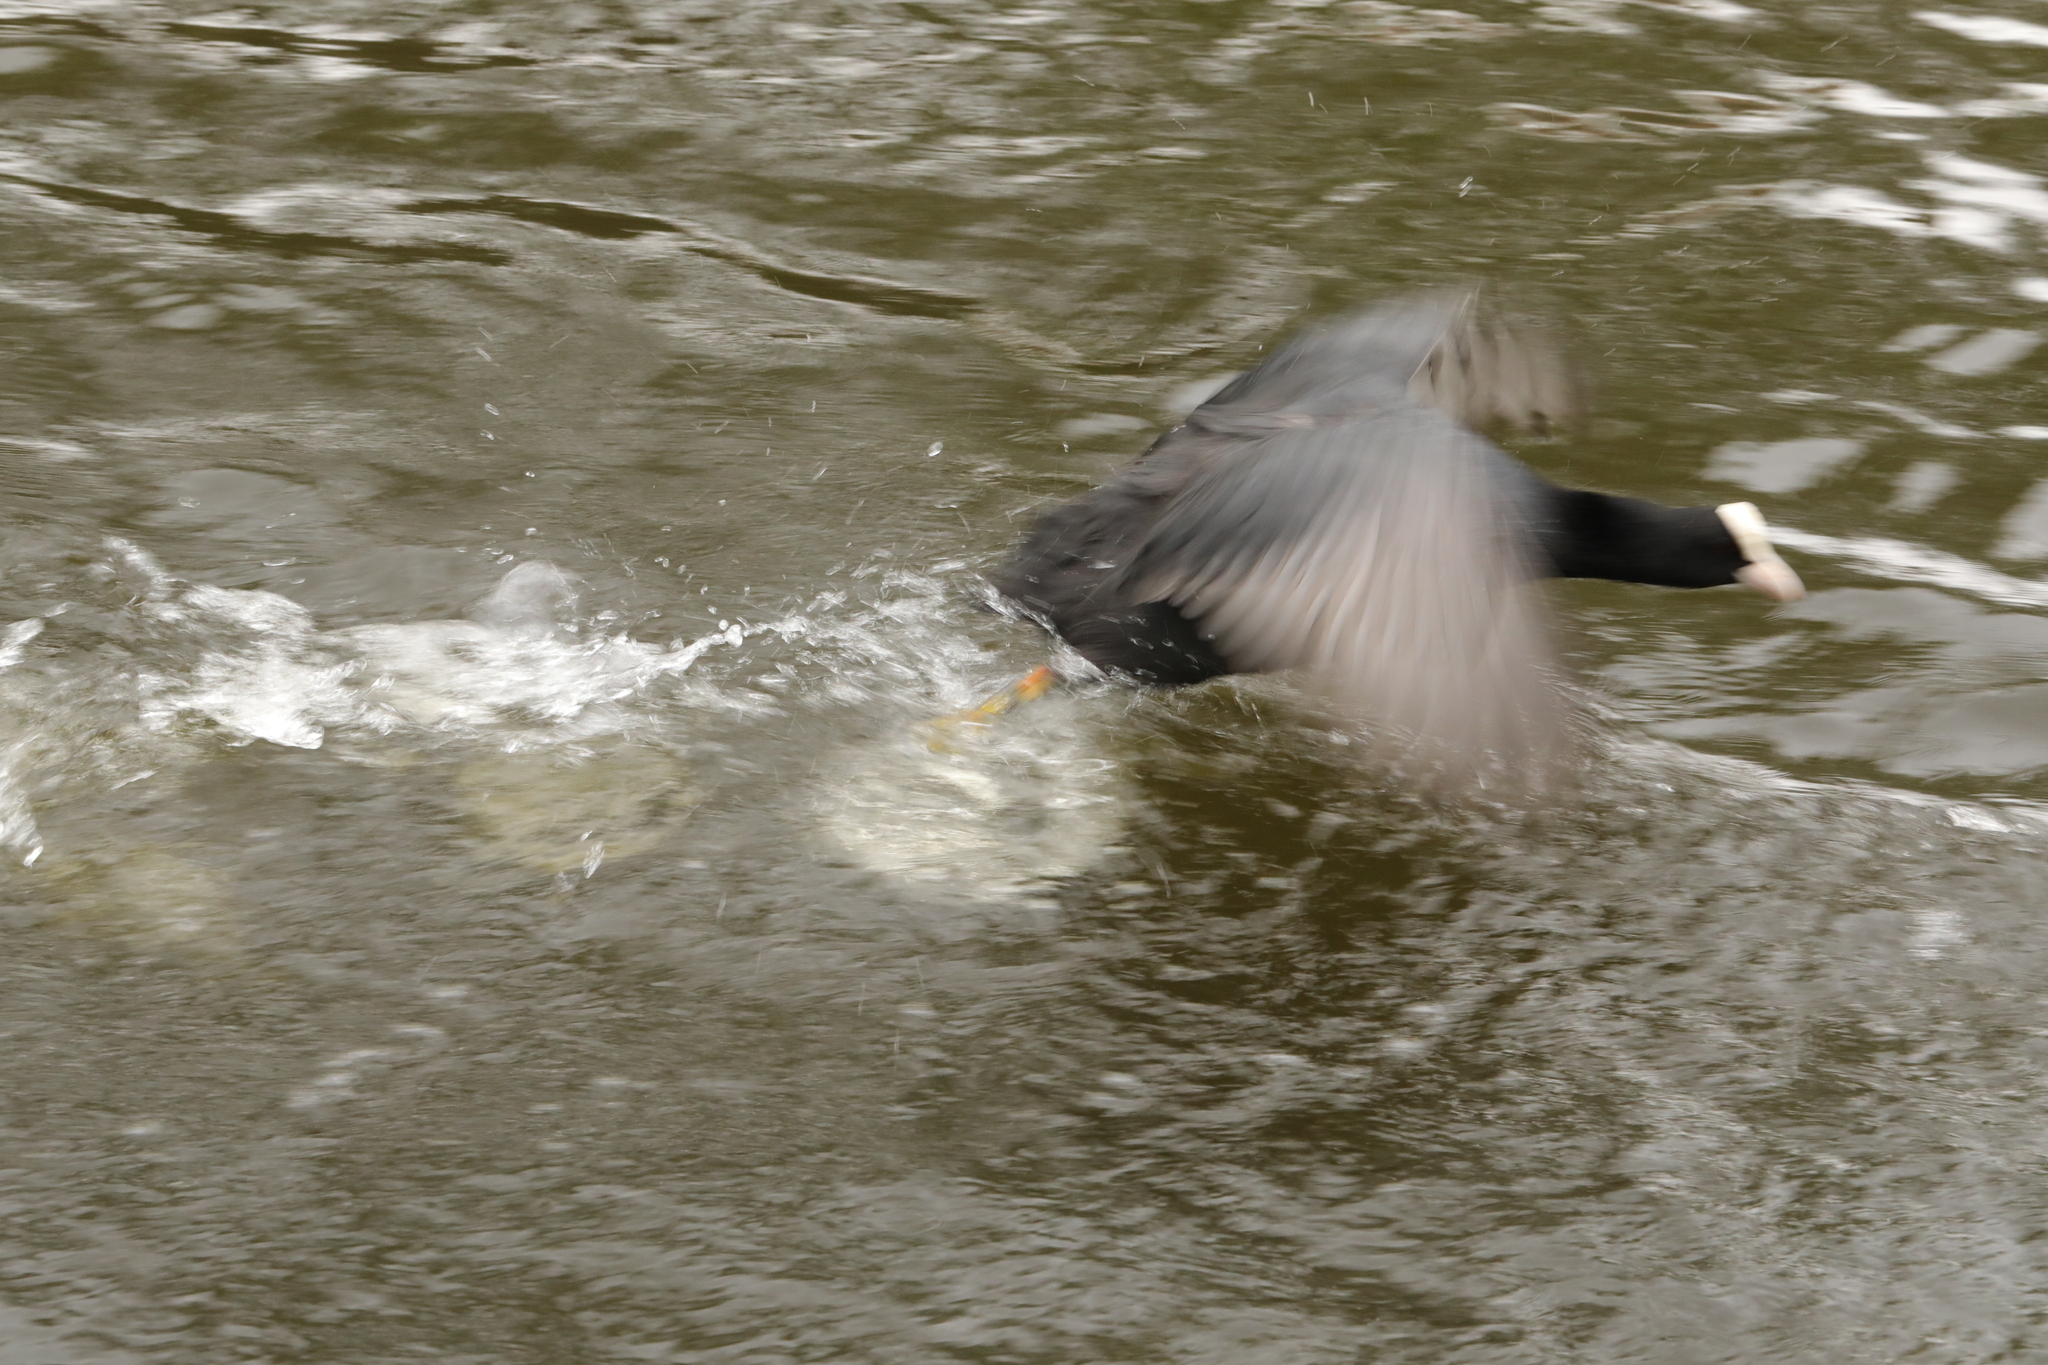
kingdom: Animalia
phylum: Chordata
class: Aves
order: Gruiformes
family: Rallidae
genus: Fulica
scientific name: Fulica atra
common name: Eurasian coot
